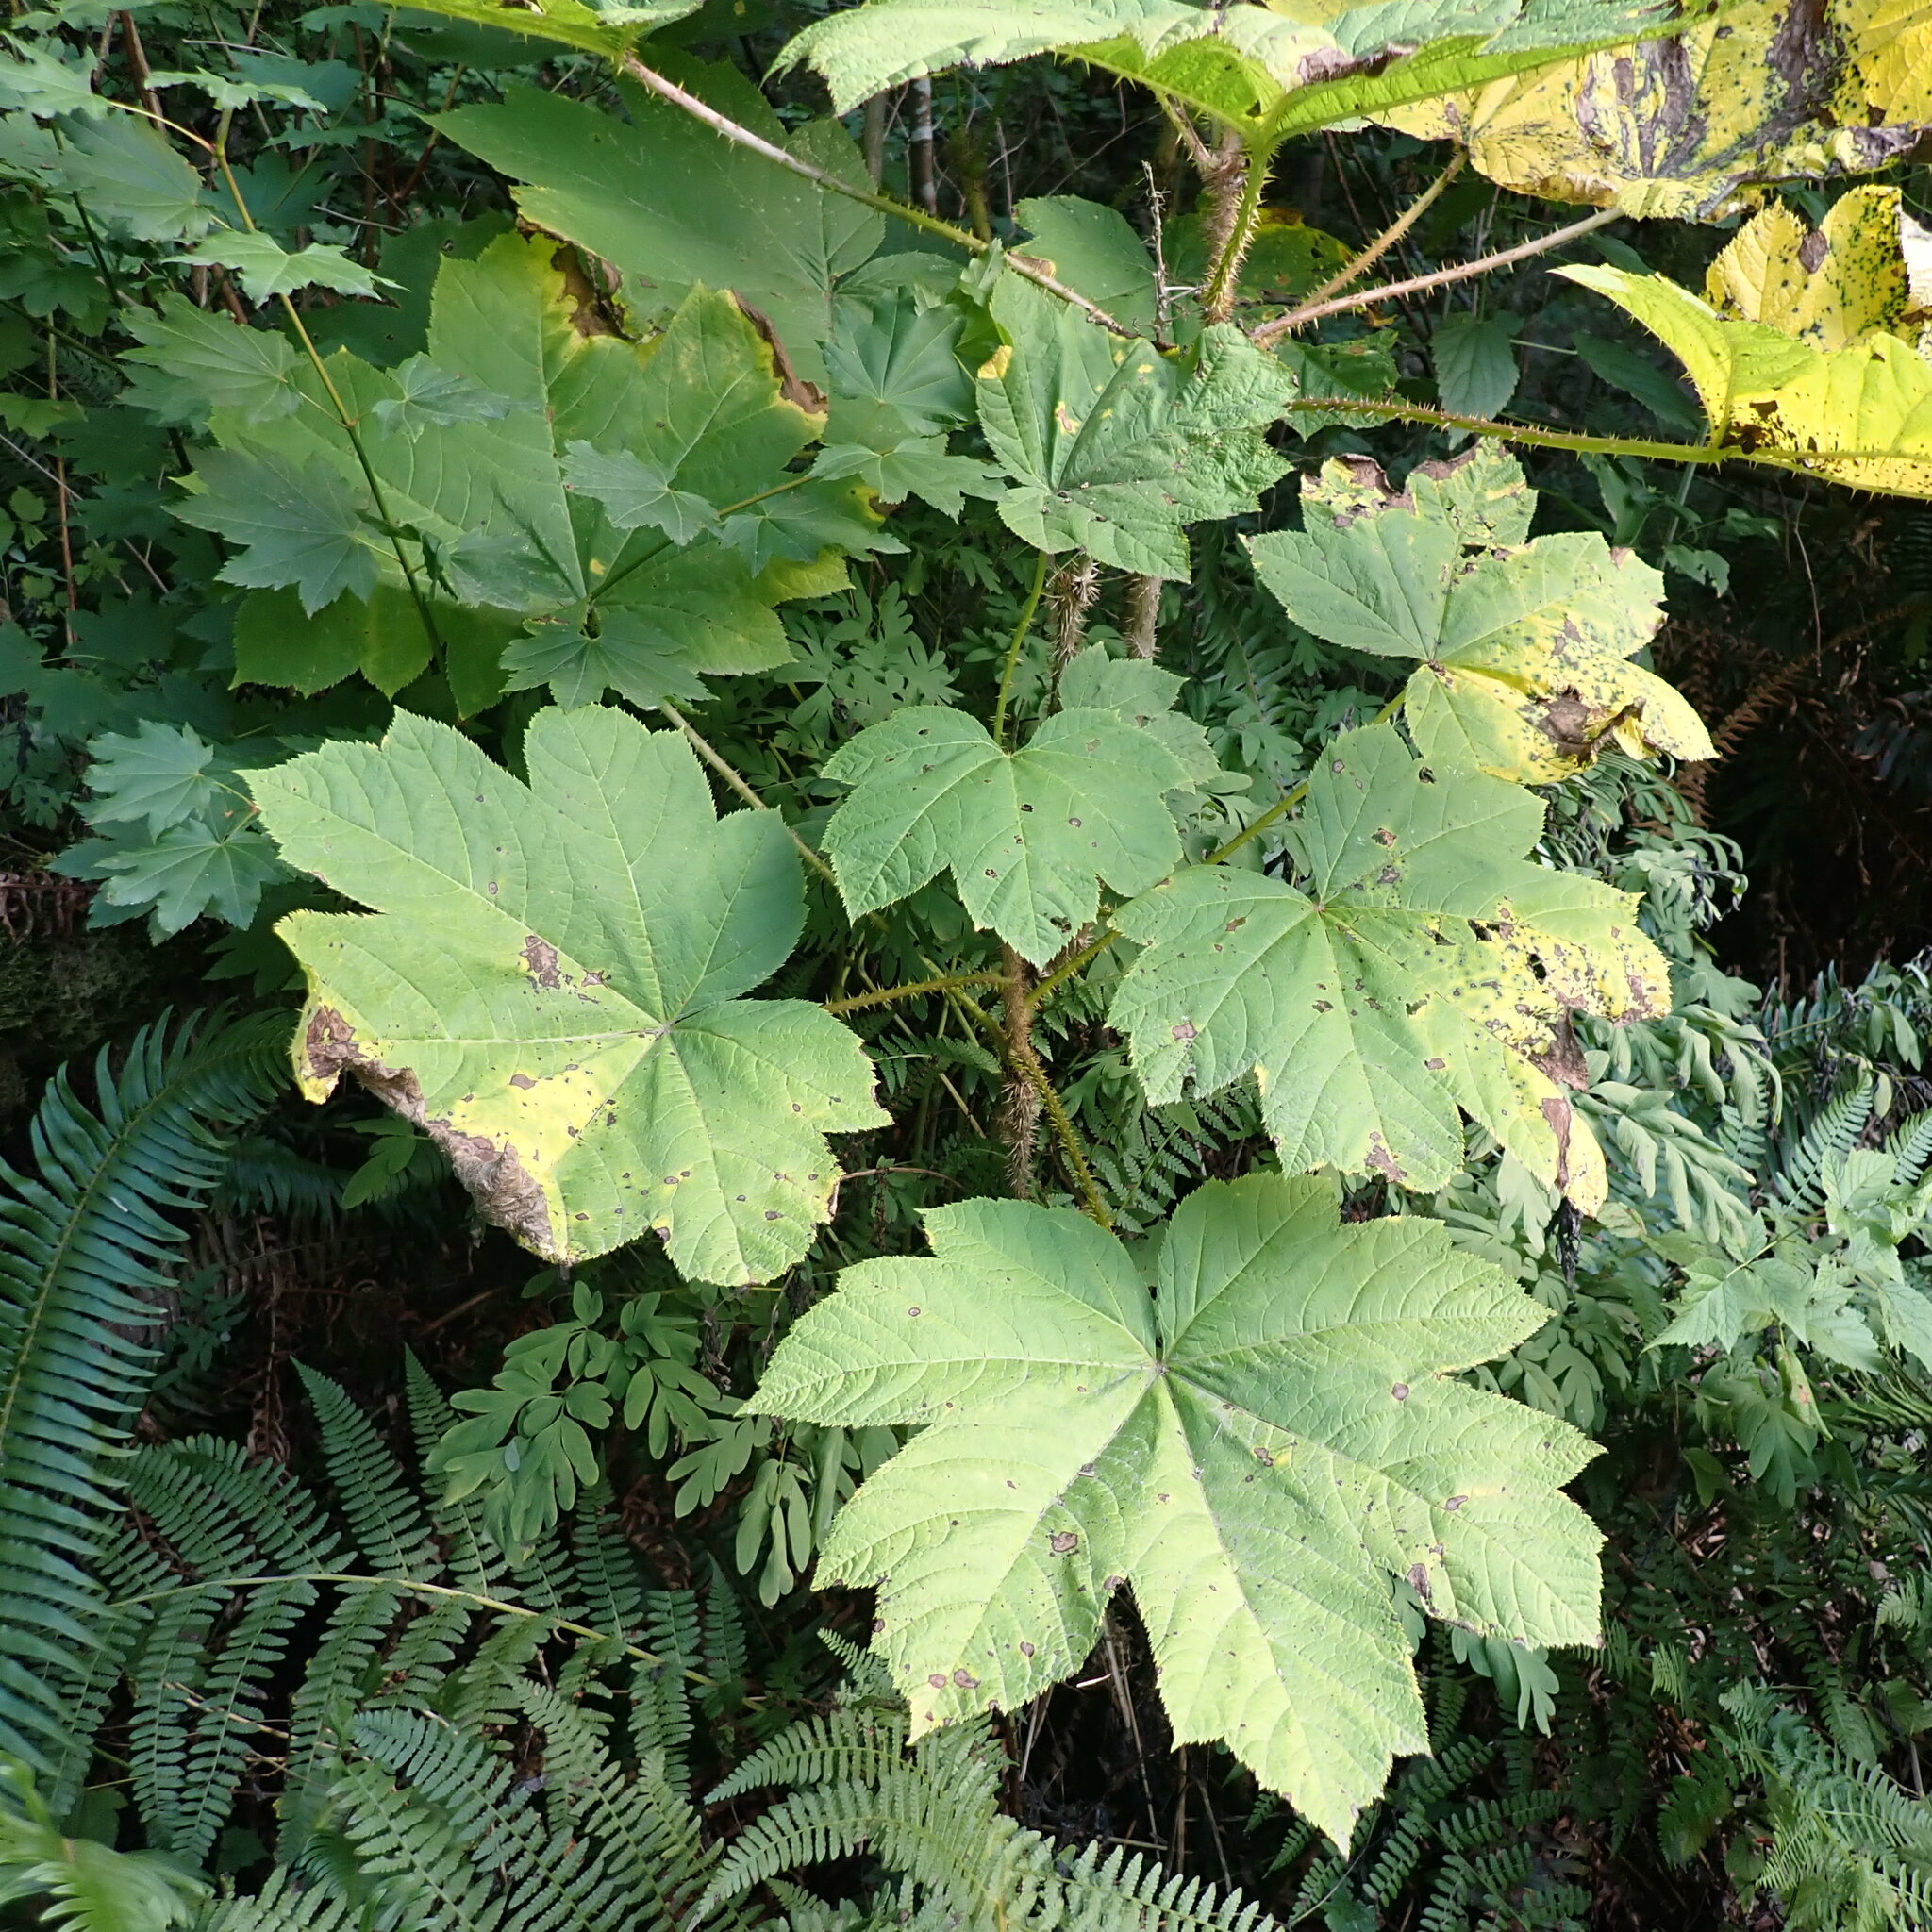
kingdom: Plantae
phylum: Tracheophyta
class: Magnoliopsida
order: Apiales
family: Araliaceae
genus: Oplopanax
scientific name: Oplopanax horridus
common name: Devil's walking-stick
